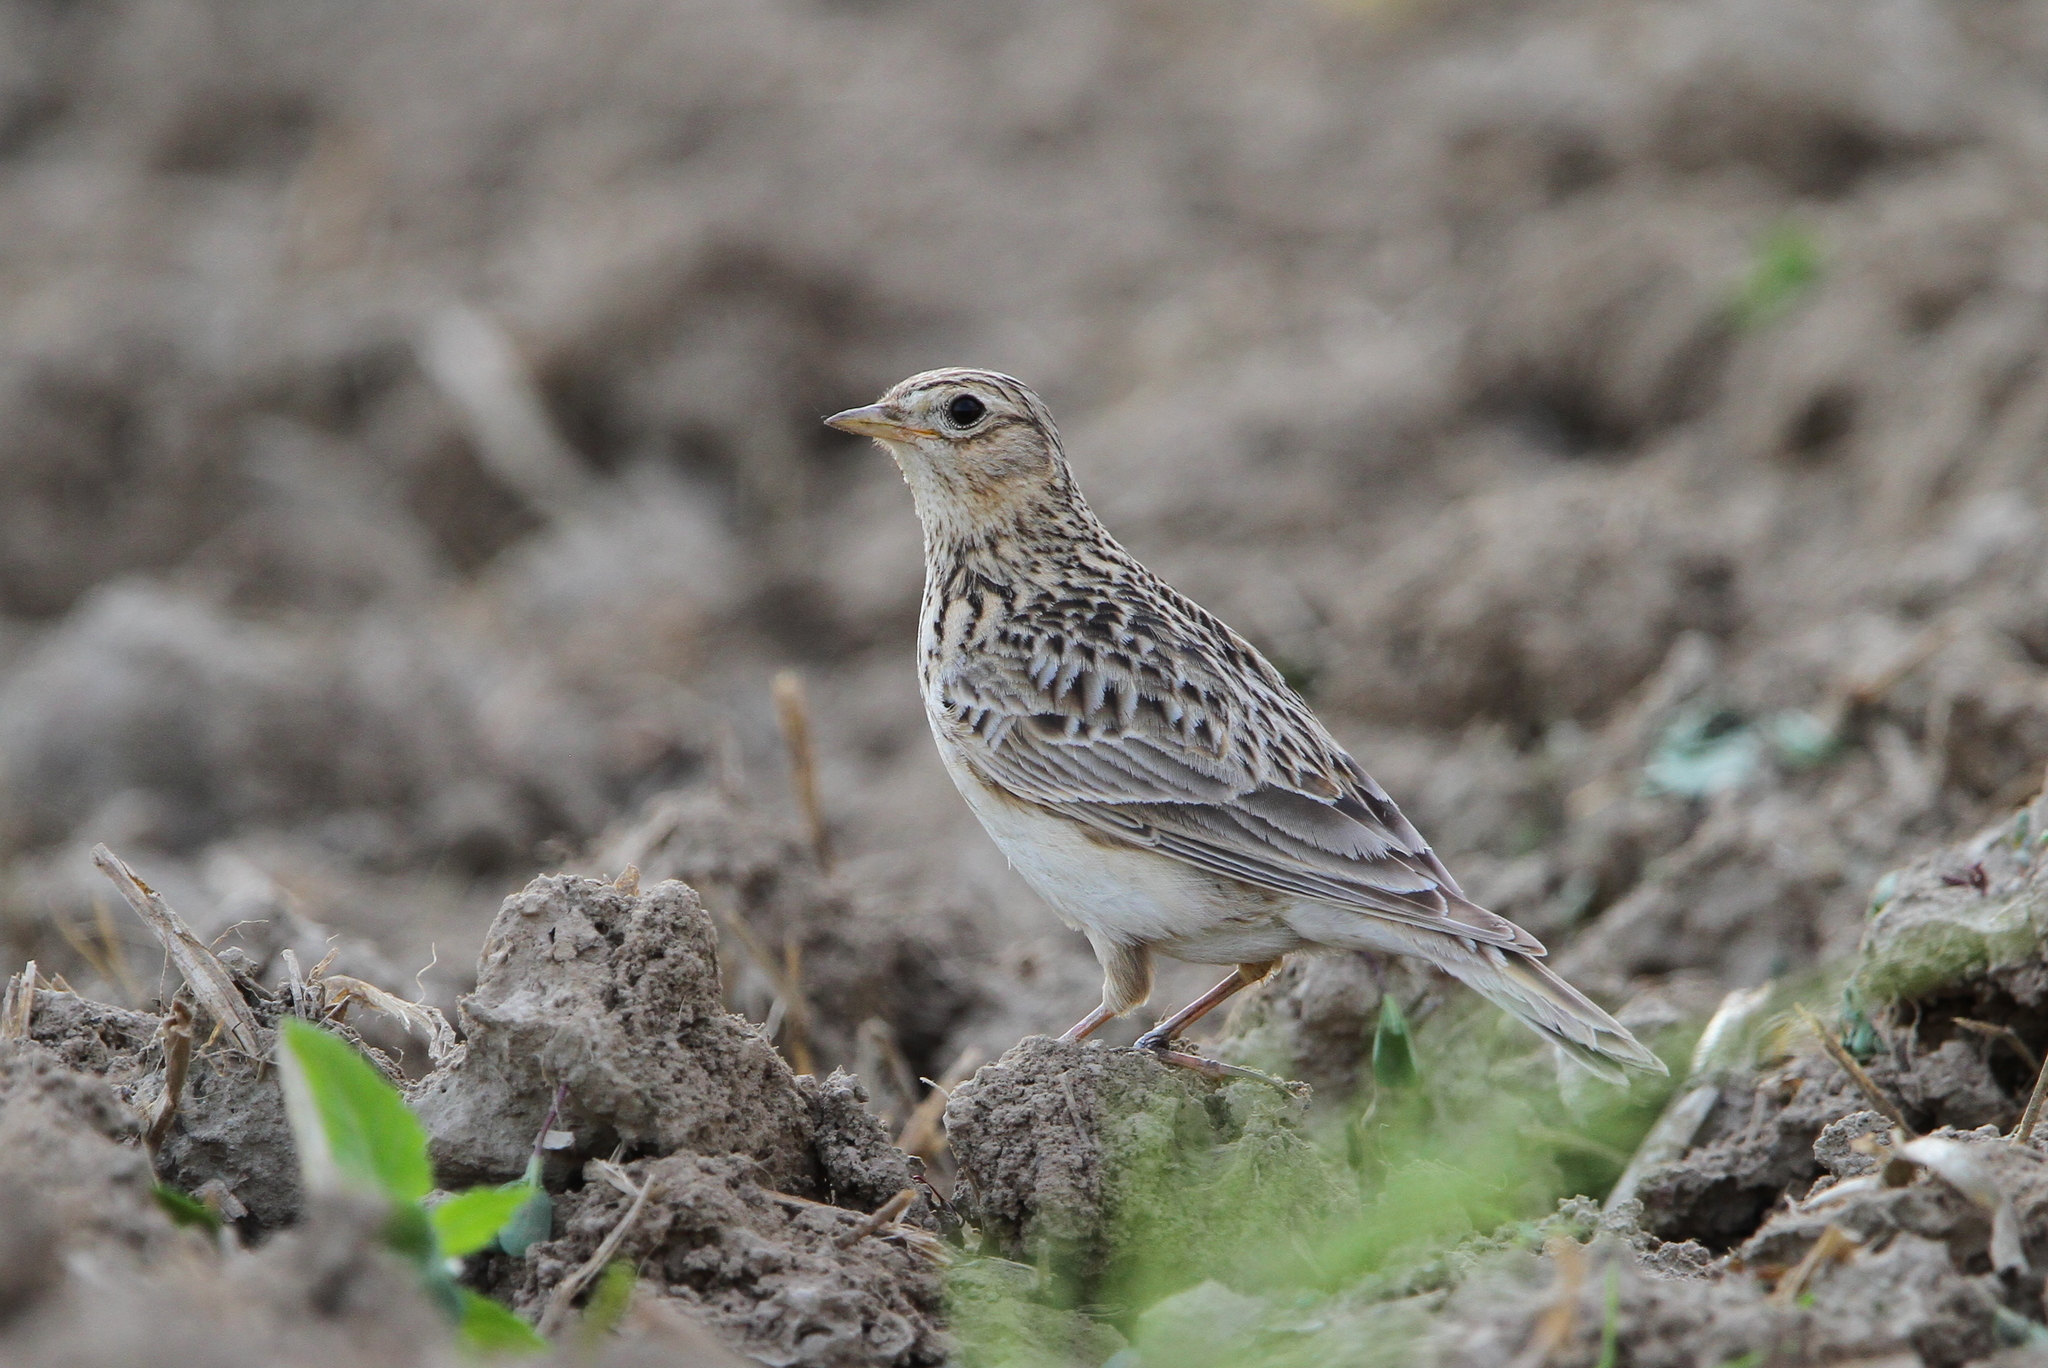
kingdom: Animalia
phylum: Chordata
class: Aves
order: Passeriformes
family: Alaudidae
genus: Alauda
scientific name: Alauda arvensis
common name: Eurasian skylark
